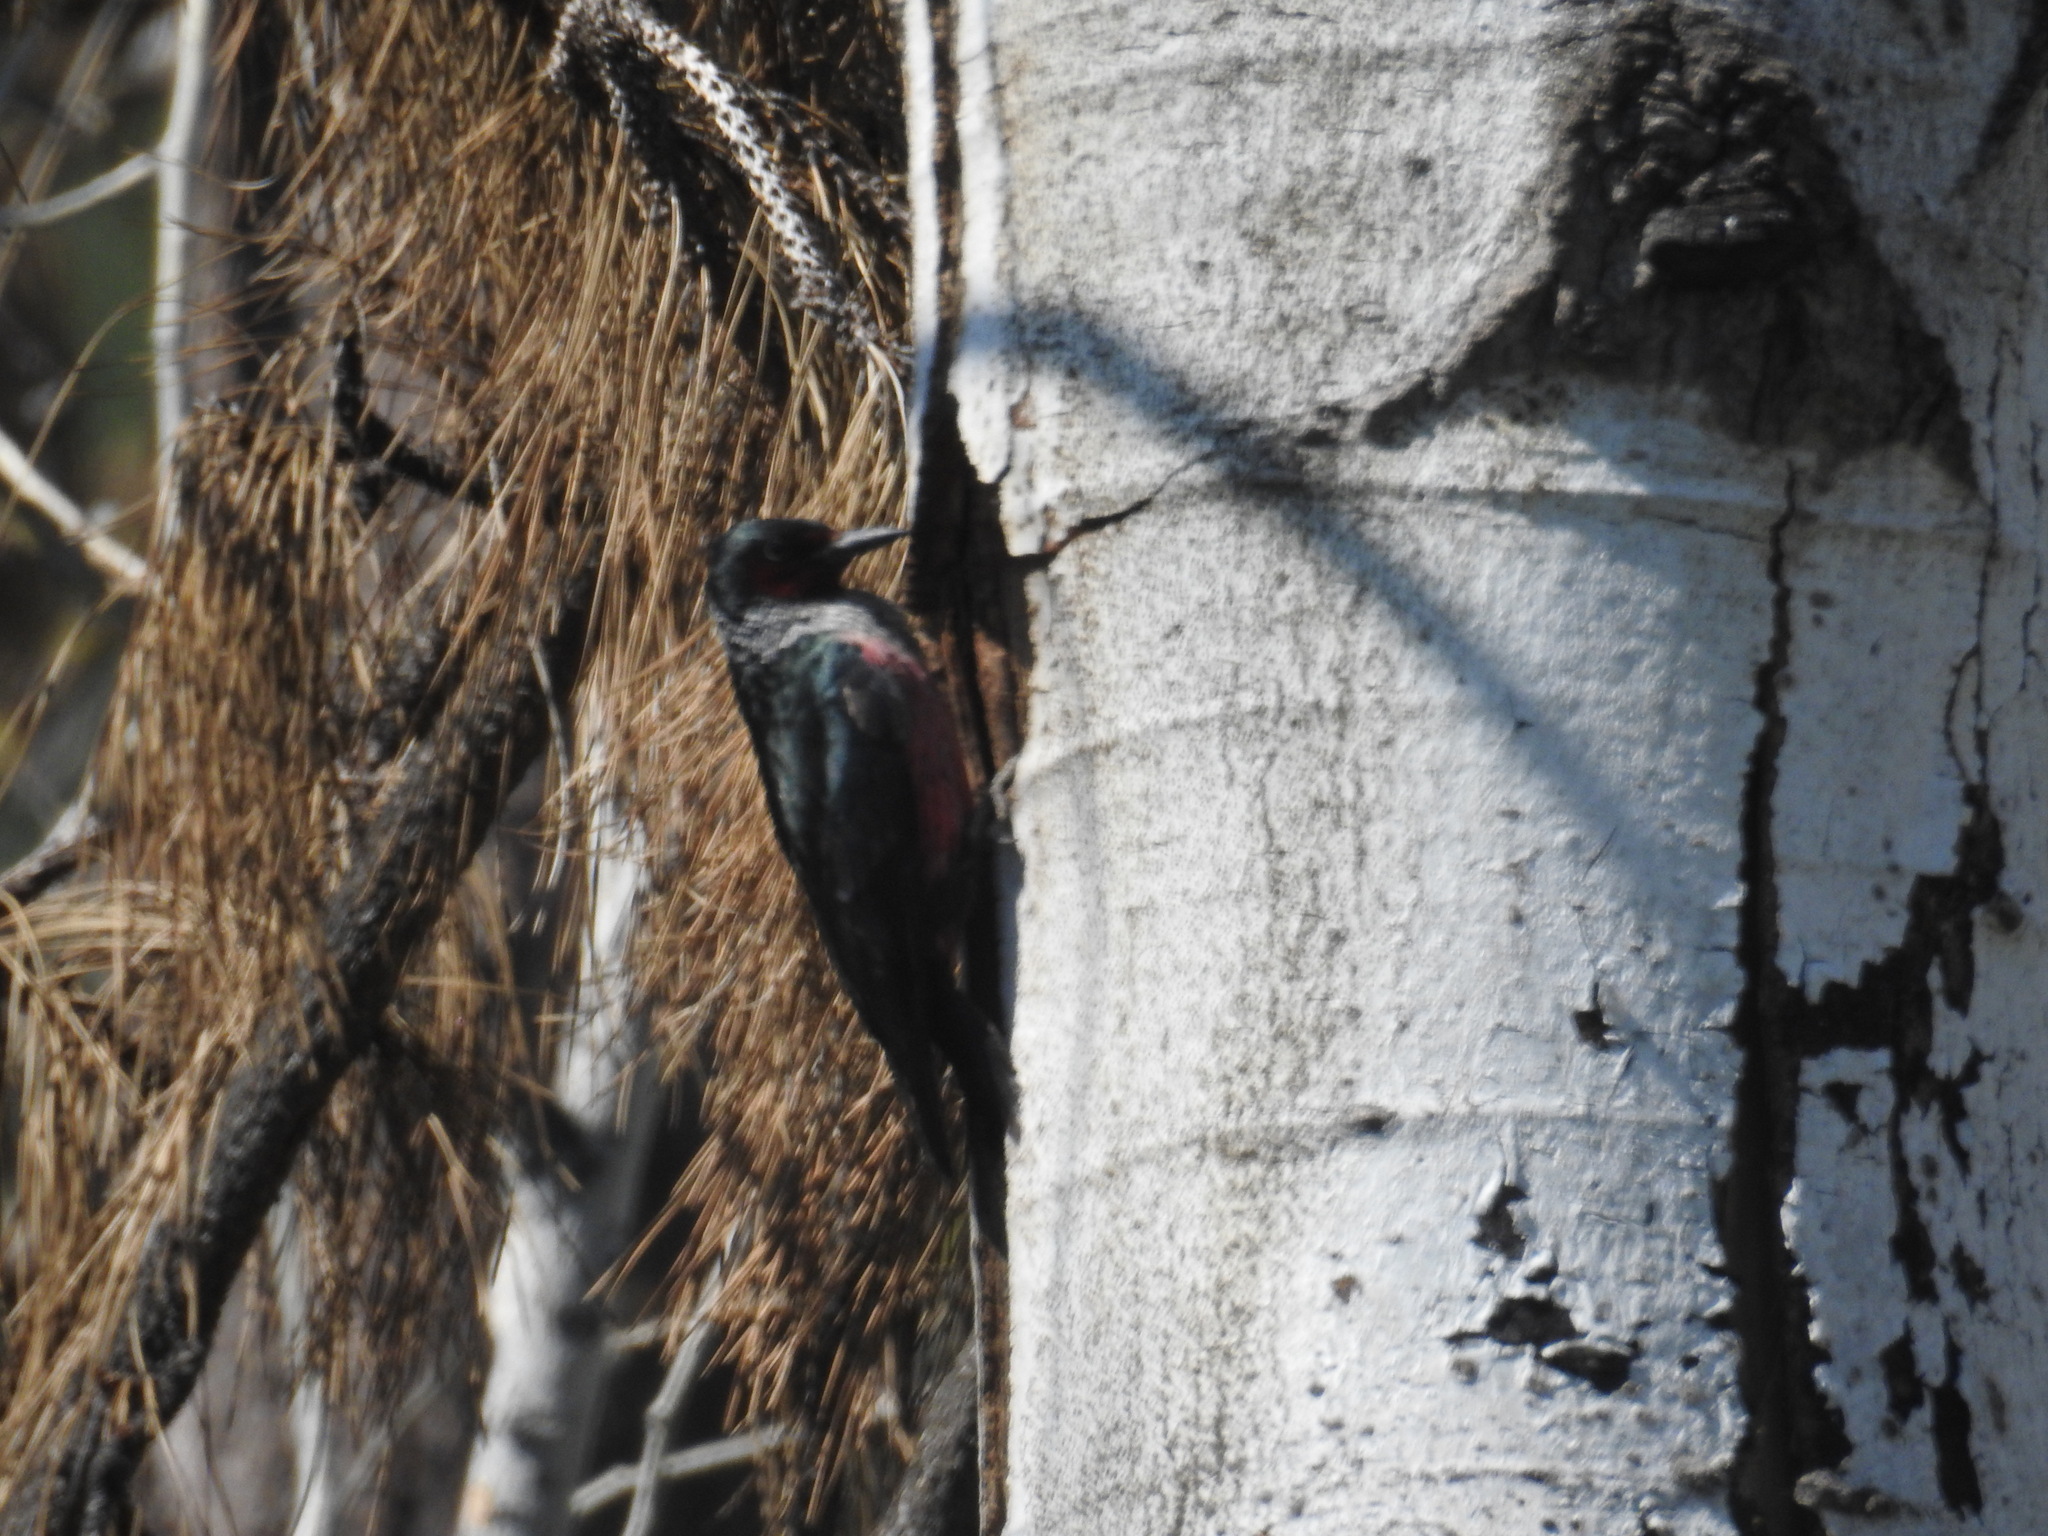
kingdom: Animalia
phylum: Chordata
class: Aves
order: Piciformes
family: Picidae
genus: Melanerpes
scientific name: Melanerpes lewis
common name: Lewis's woodpecker
